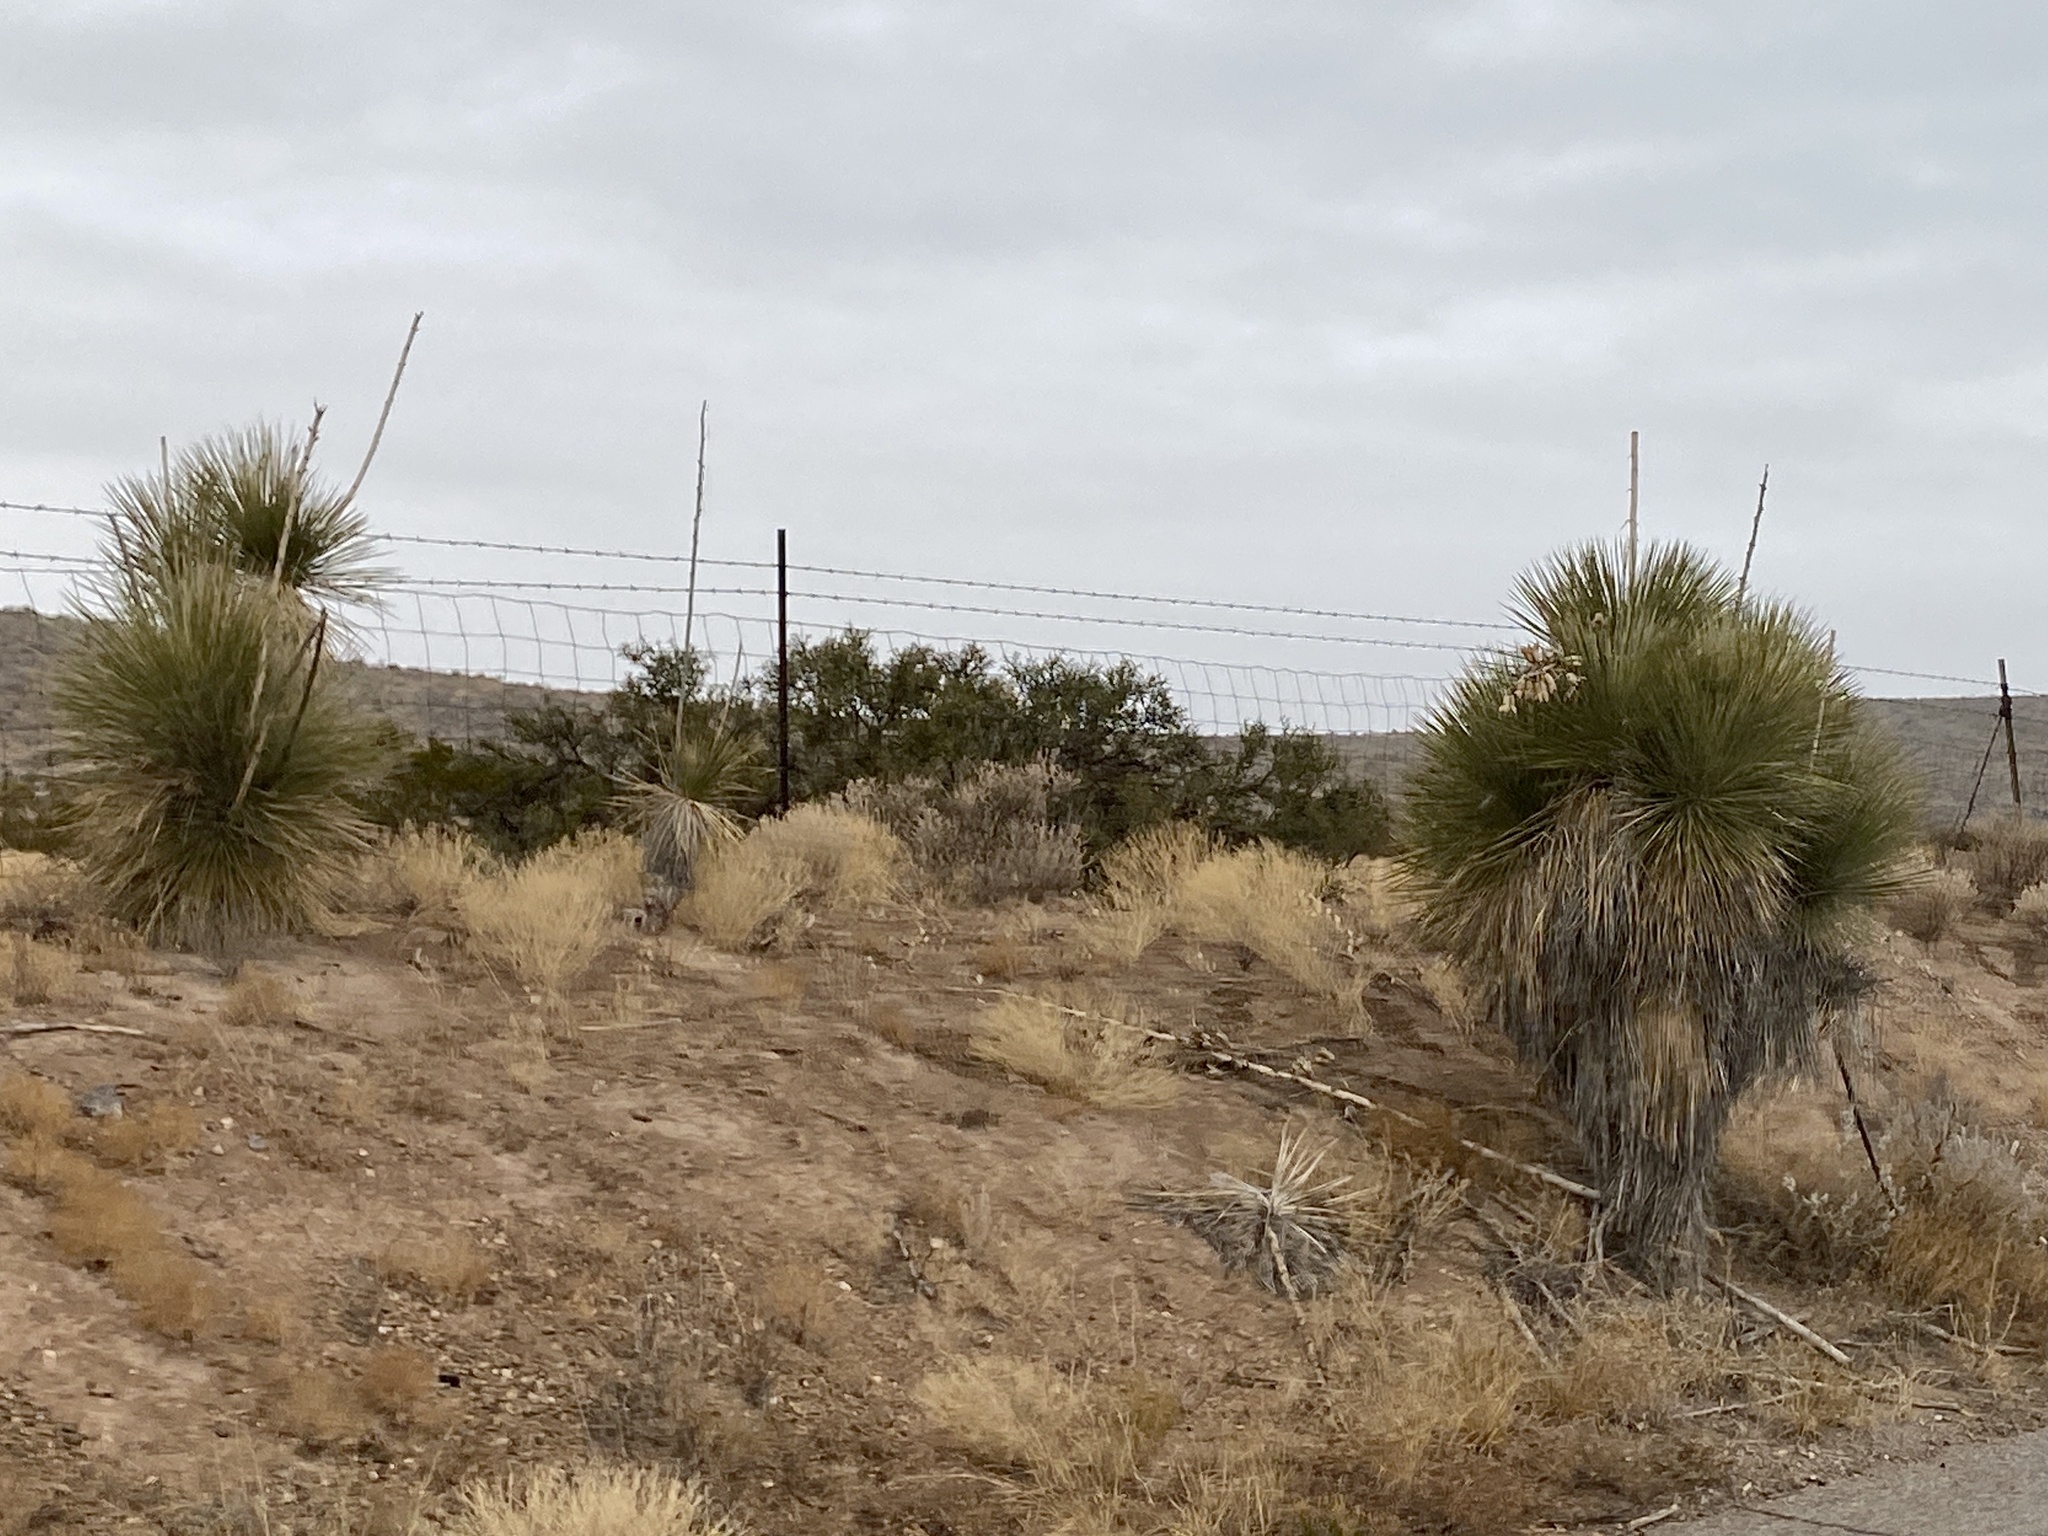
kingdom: Plantae
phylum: Tracheophyta
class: Liliopsida
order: Asparagales
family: Asparagaceae
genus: Yucca
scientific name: Yucca elata
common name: Palmella
